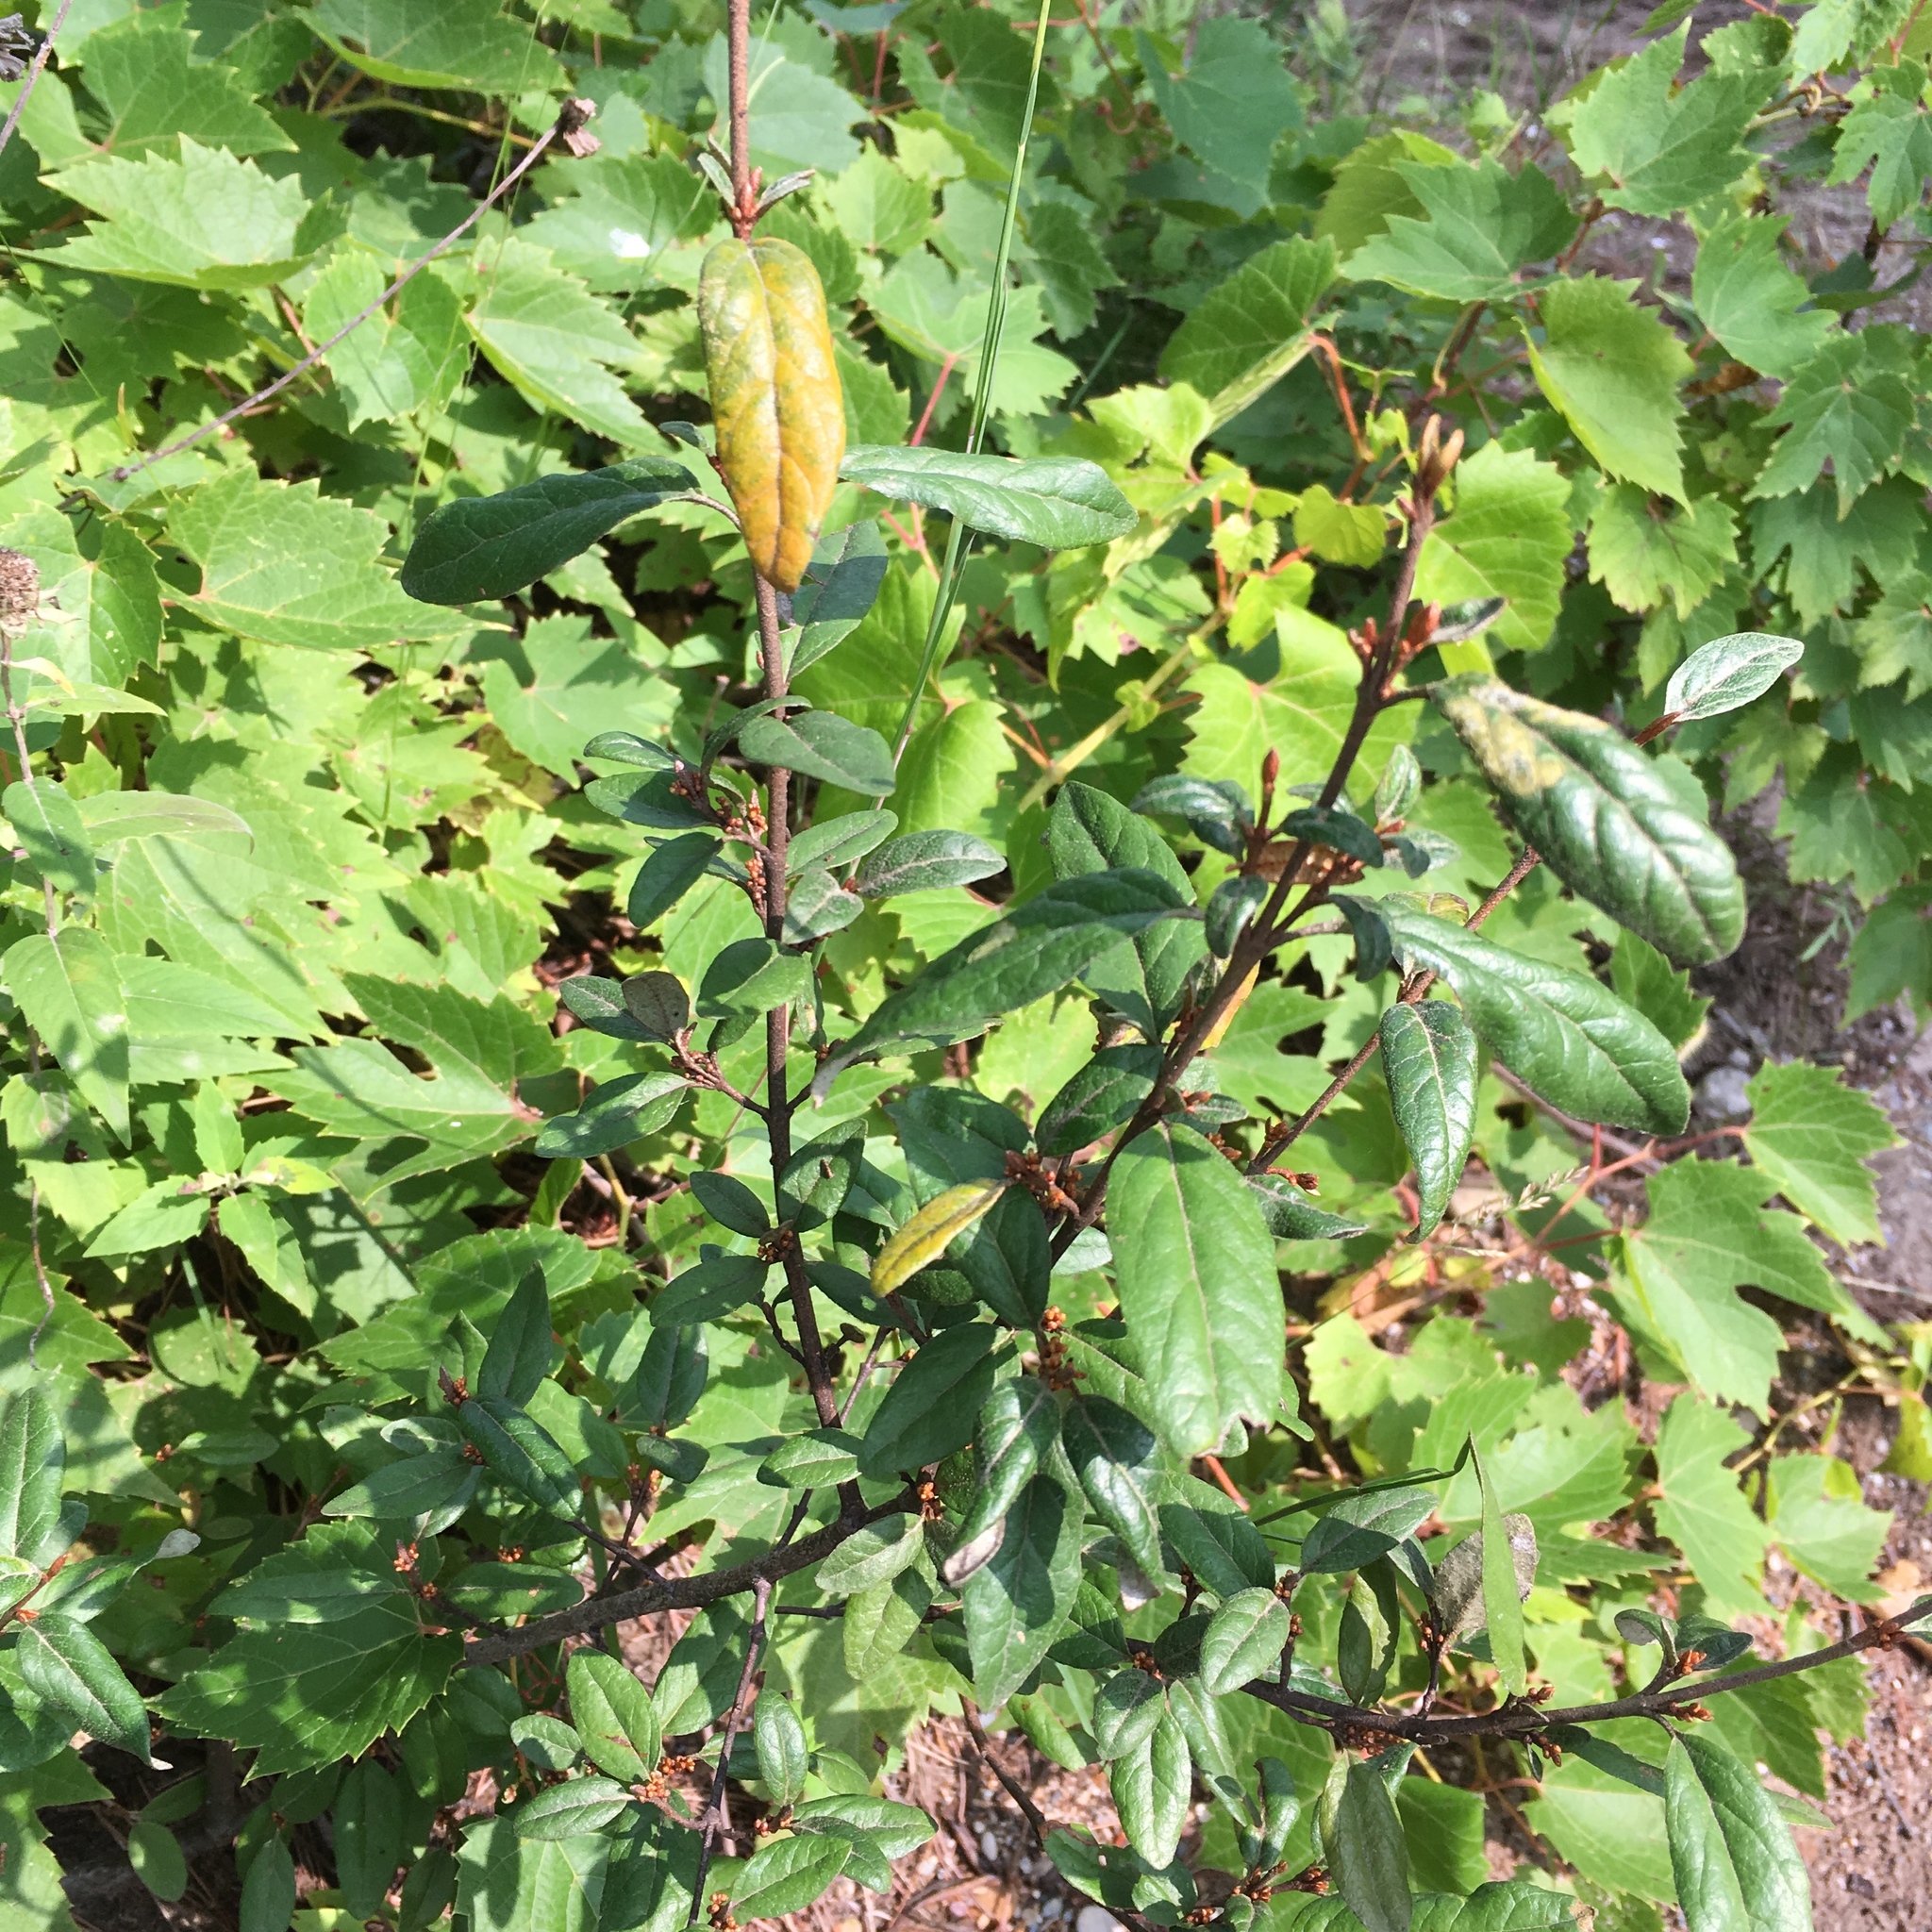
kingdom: Plantae
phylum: Tracheophyta
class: Magnoliopsida
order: Rosales
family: Elaeagnaceae
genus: Shepherdia
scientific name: Shepherdia canadensis
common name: Soapberry
